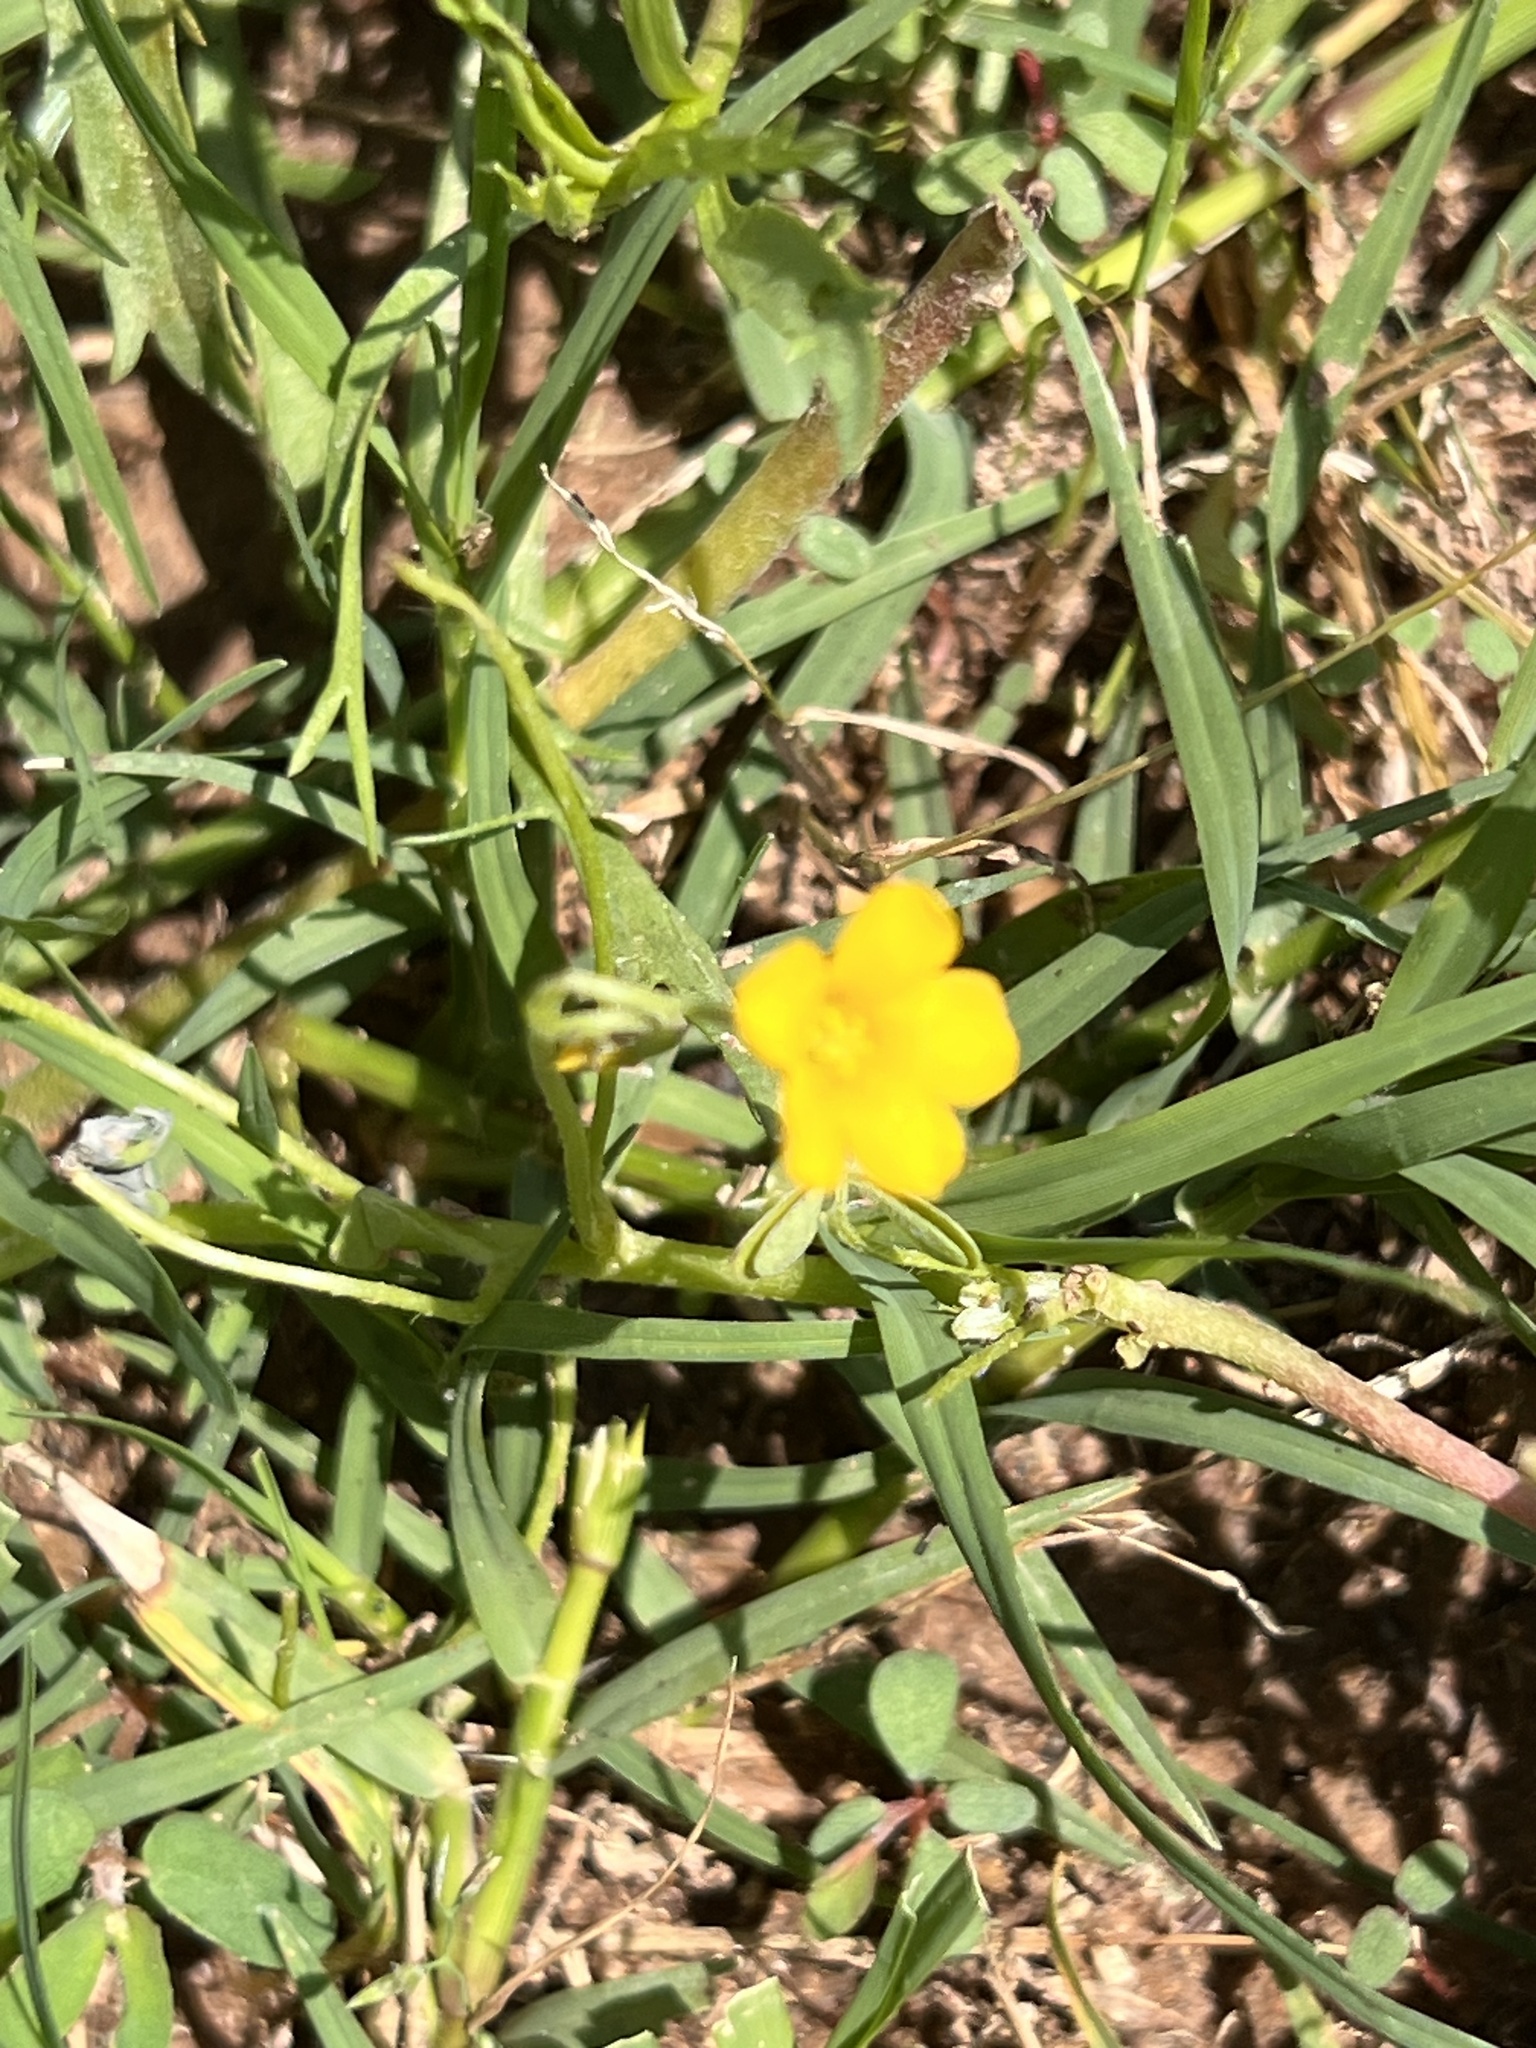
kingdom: Plantae
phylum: Tracheophyta
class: Magnoliopsida
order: Oxalidales
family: Oxalidaceae
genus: Oxalis
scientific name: Oxalis dillenii
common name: Sussex yellow-sorrel
